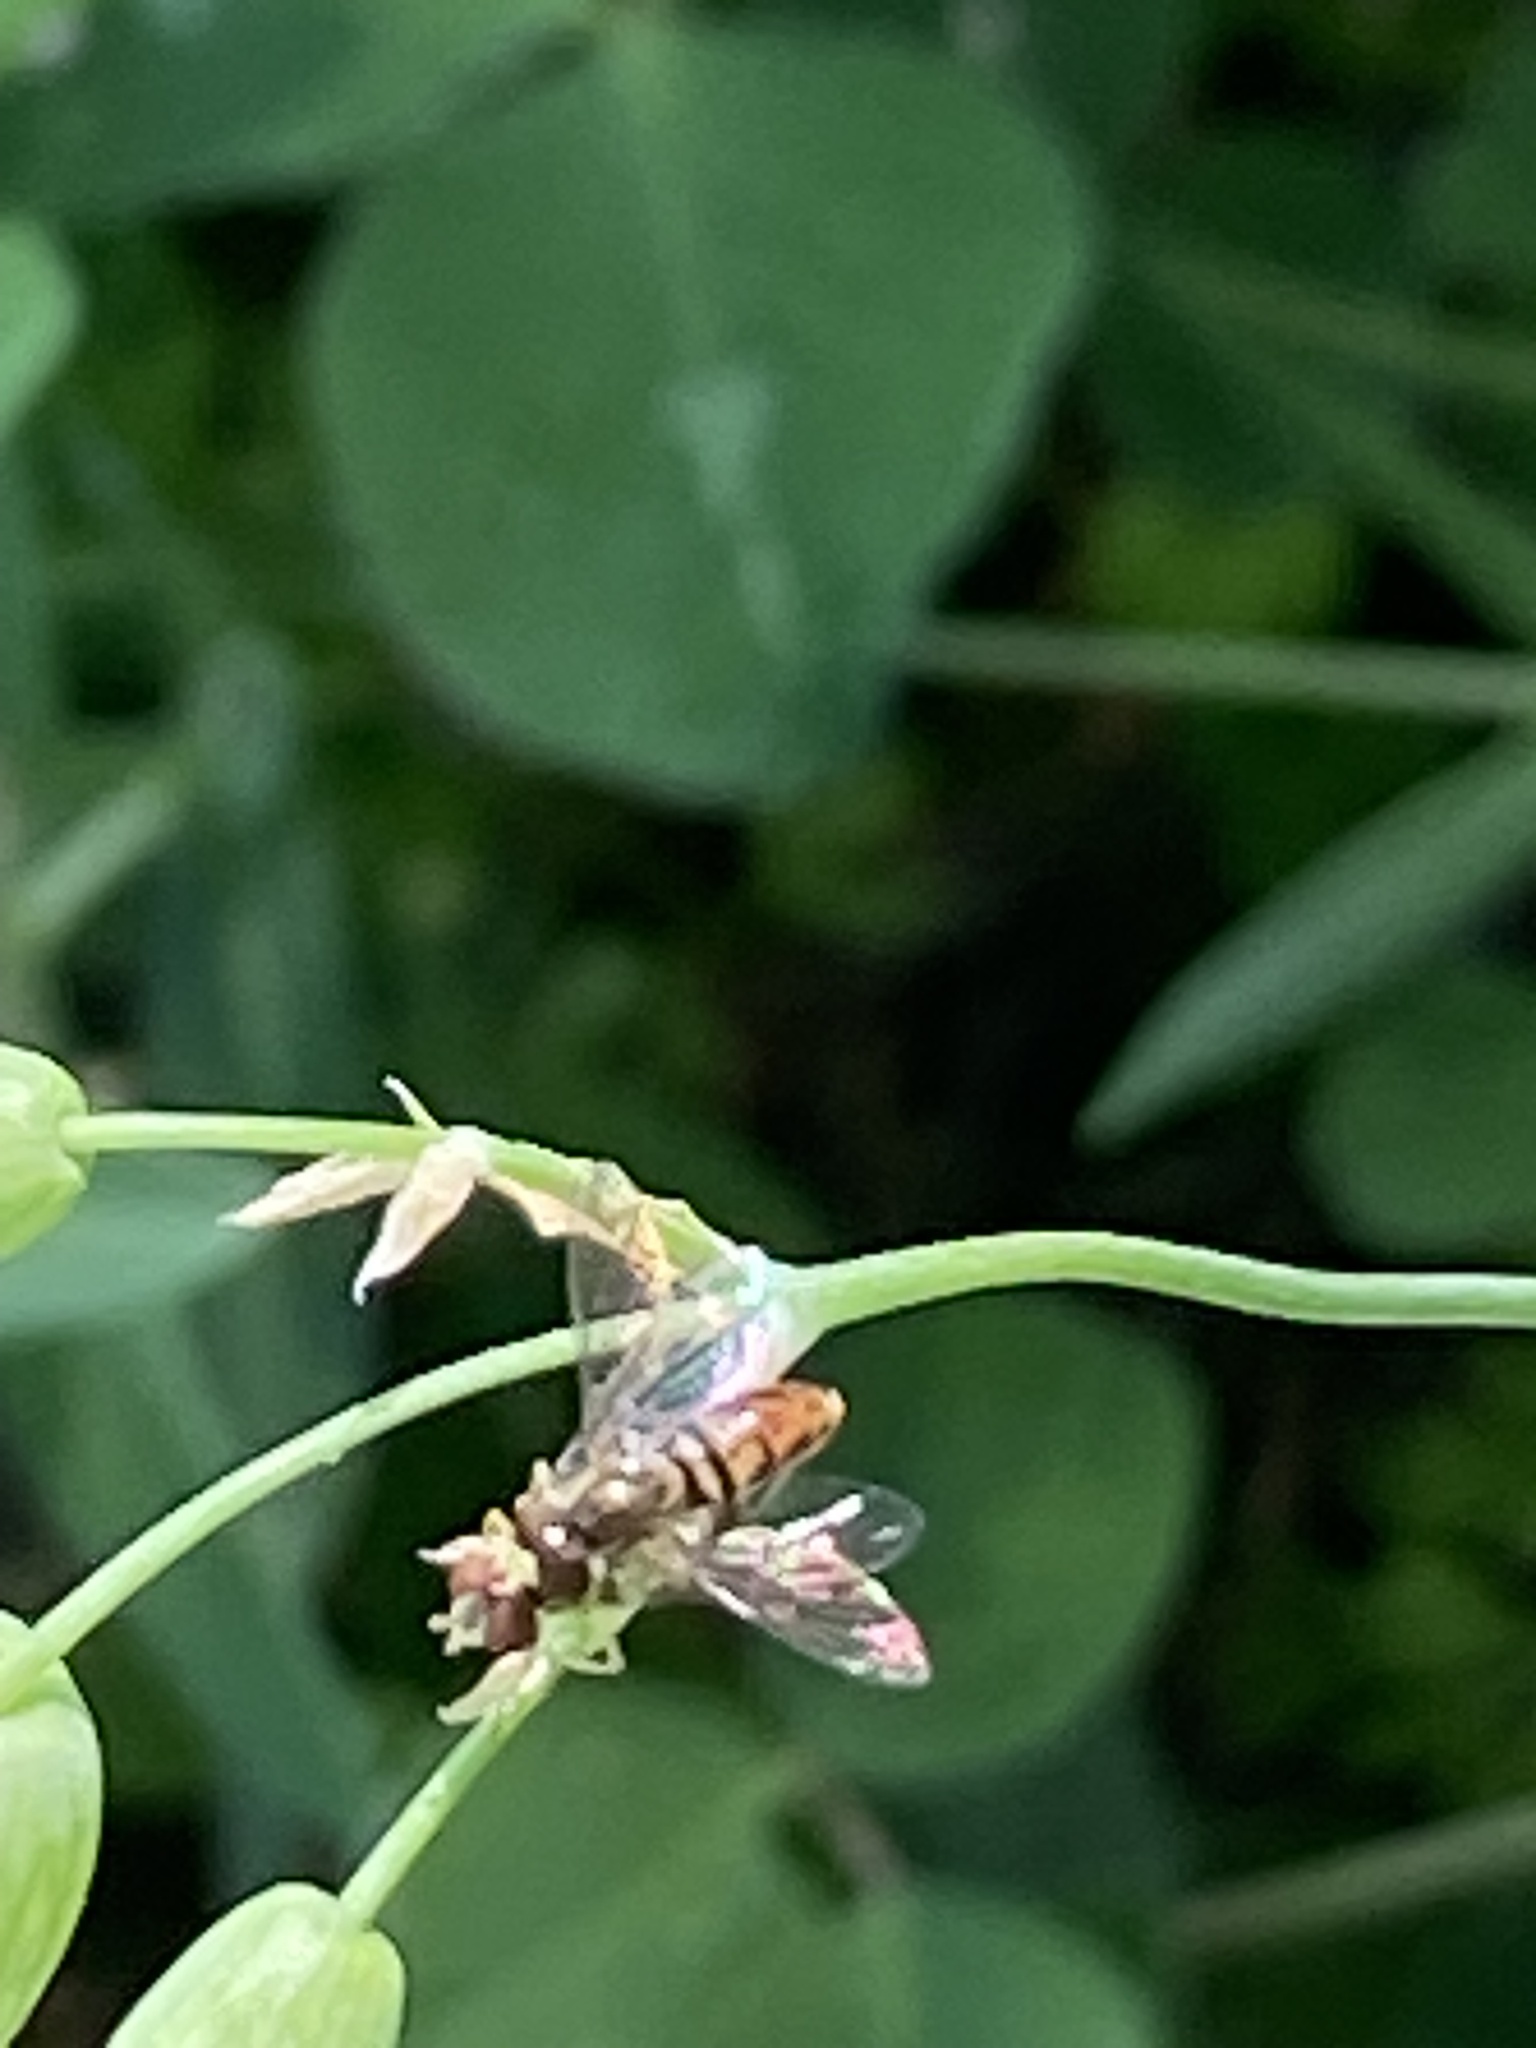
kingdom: Animalia
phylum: Arthropoda
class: Insecta
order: Diptera
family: Syrphidae
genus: Toxomerus
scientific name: Toxomerus marginatus
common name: Syrphid fly
